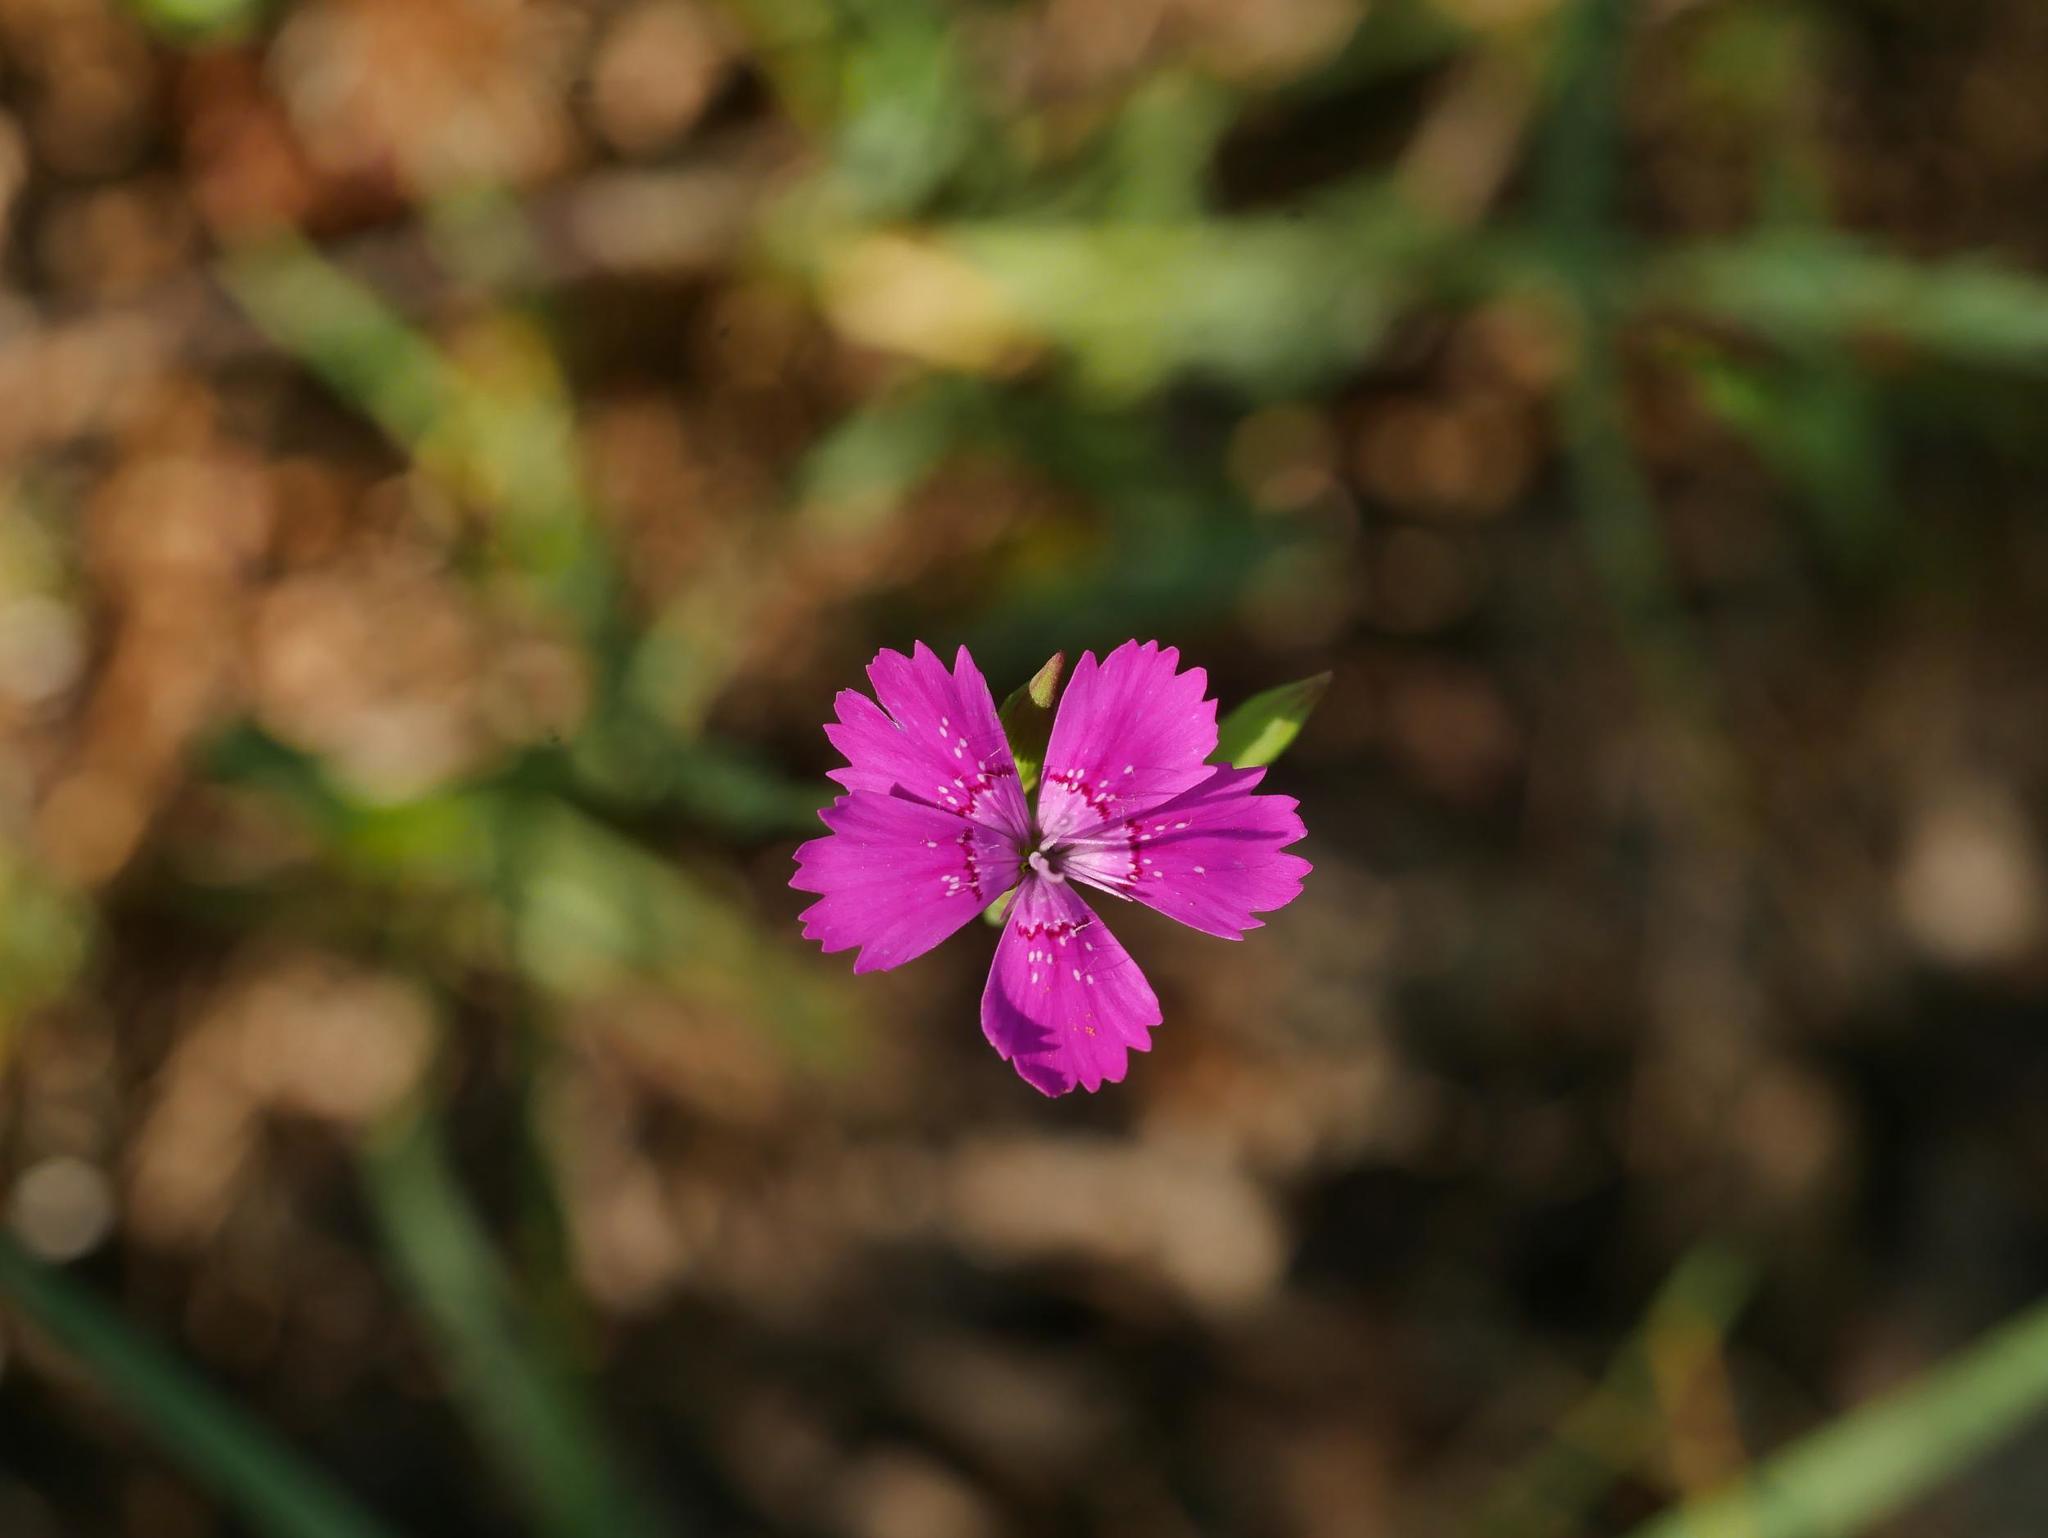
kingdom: Plantae
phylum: Tracheophyta
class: Magnoliopsida
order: Caryophyllales
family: Caryophyllaceae
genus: Dianthus
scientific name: Dianthus deltoides
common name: Maiden pink
